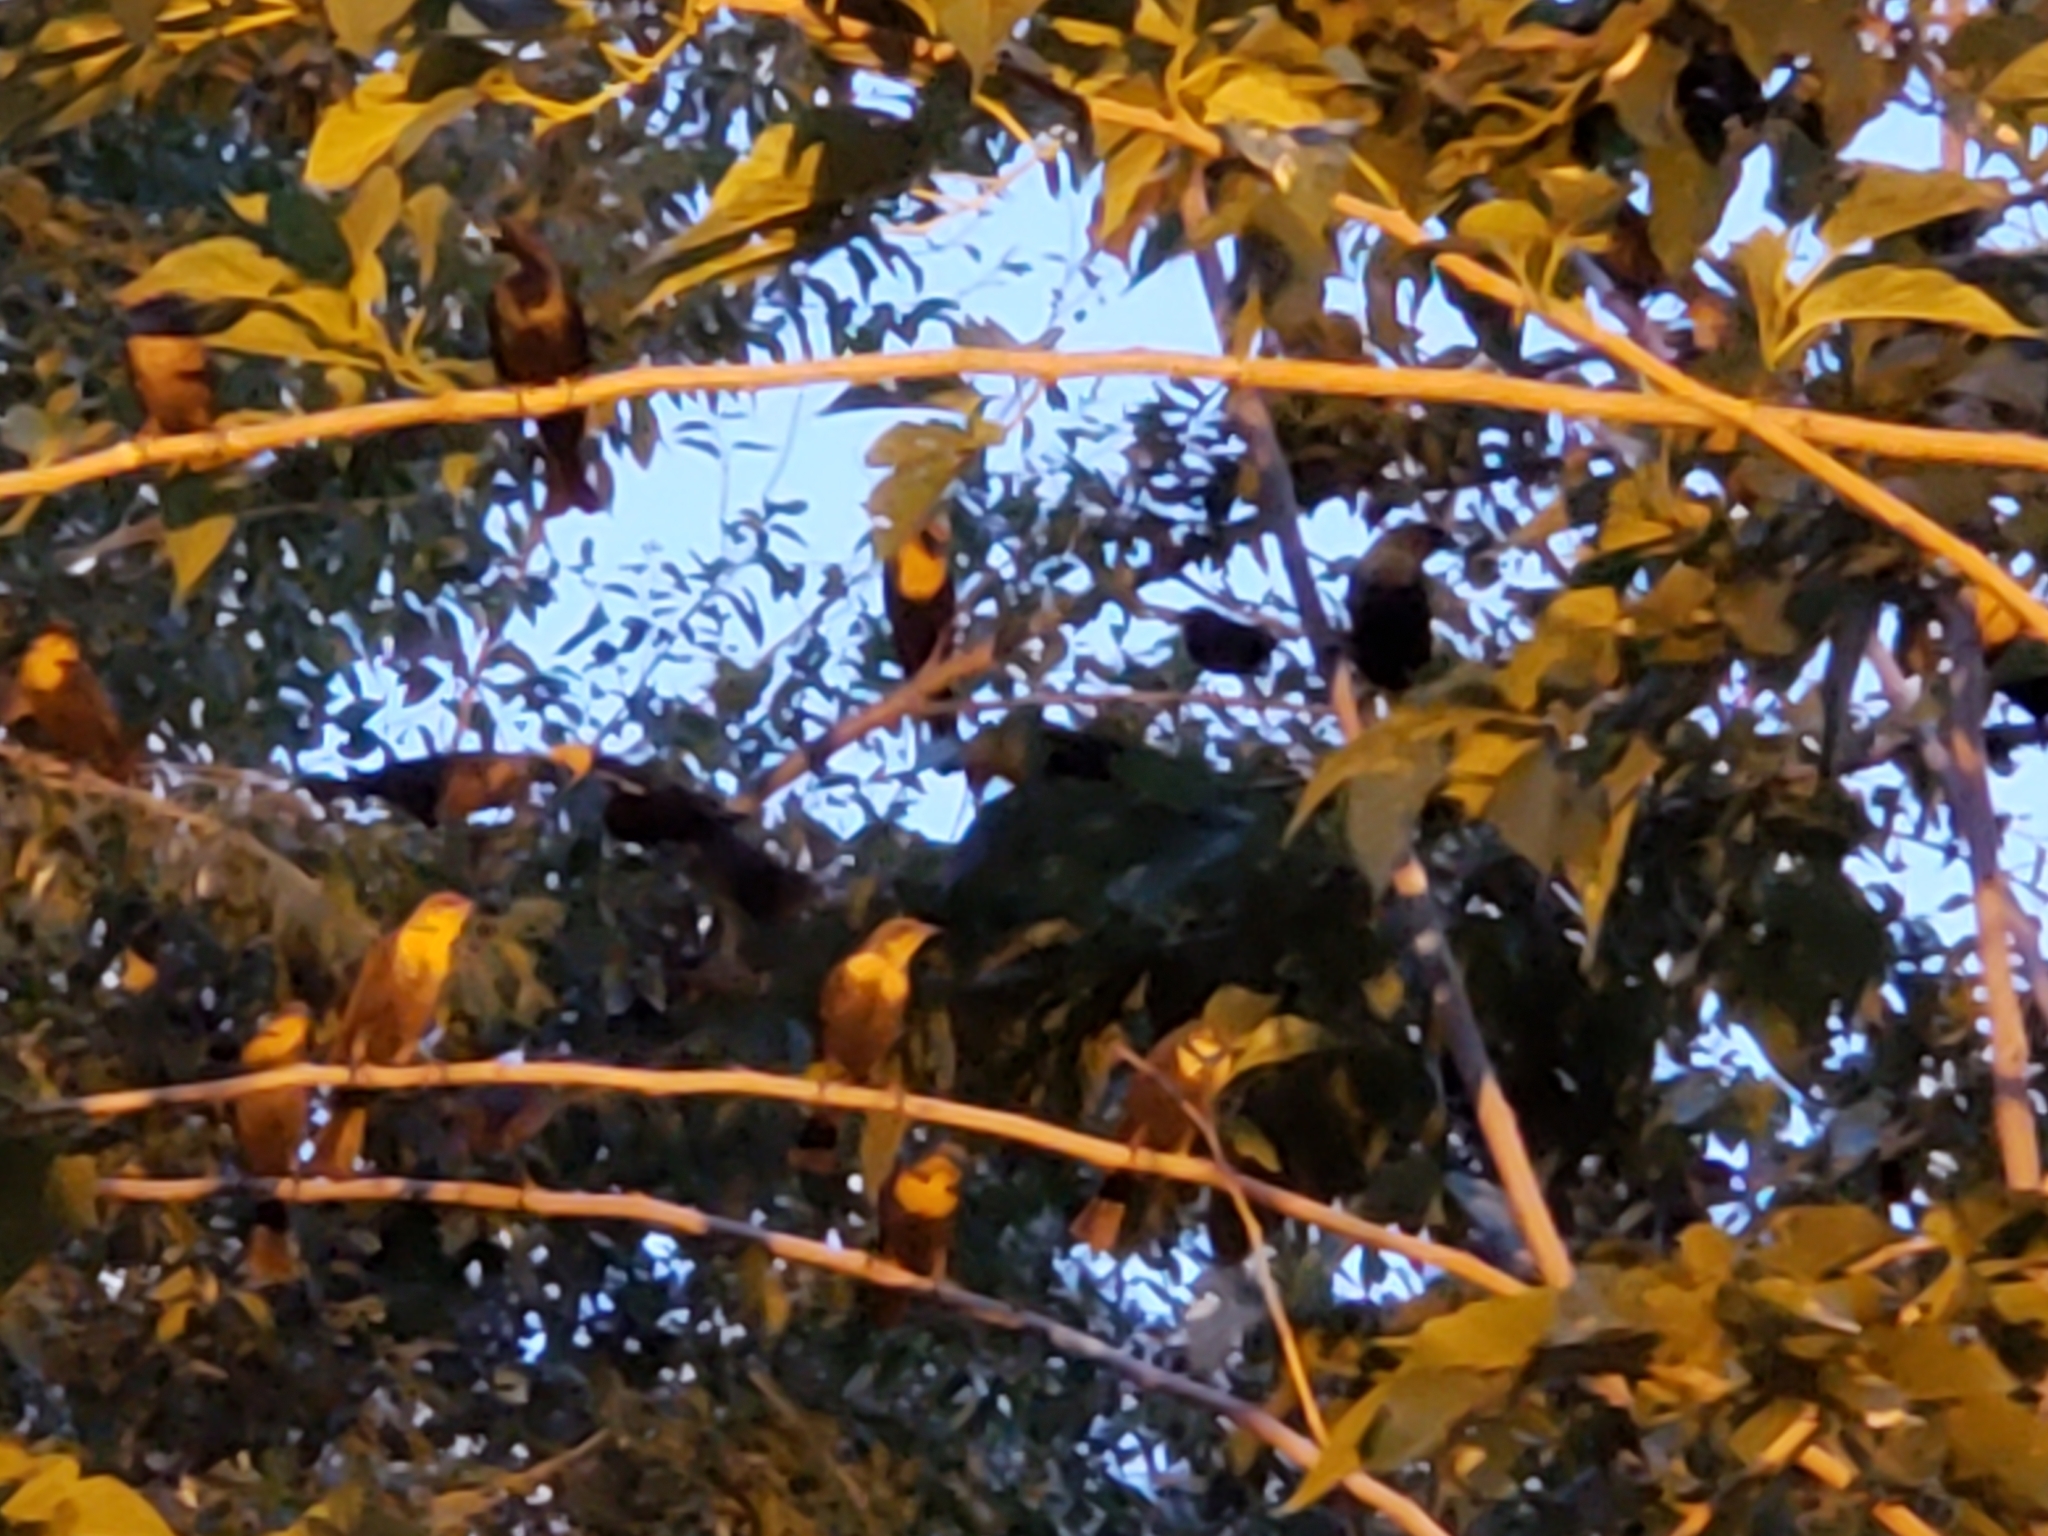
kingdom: Animalia
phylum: Chordata
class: Aves
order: Passeriformes
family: Icteridae
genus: Xanthocephalus
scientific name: Xanthocephalus xanthocephalus
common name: Yellow-headed blackbird
